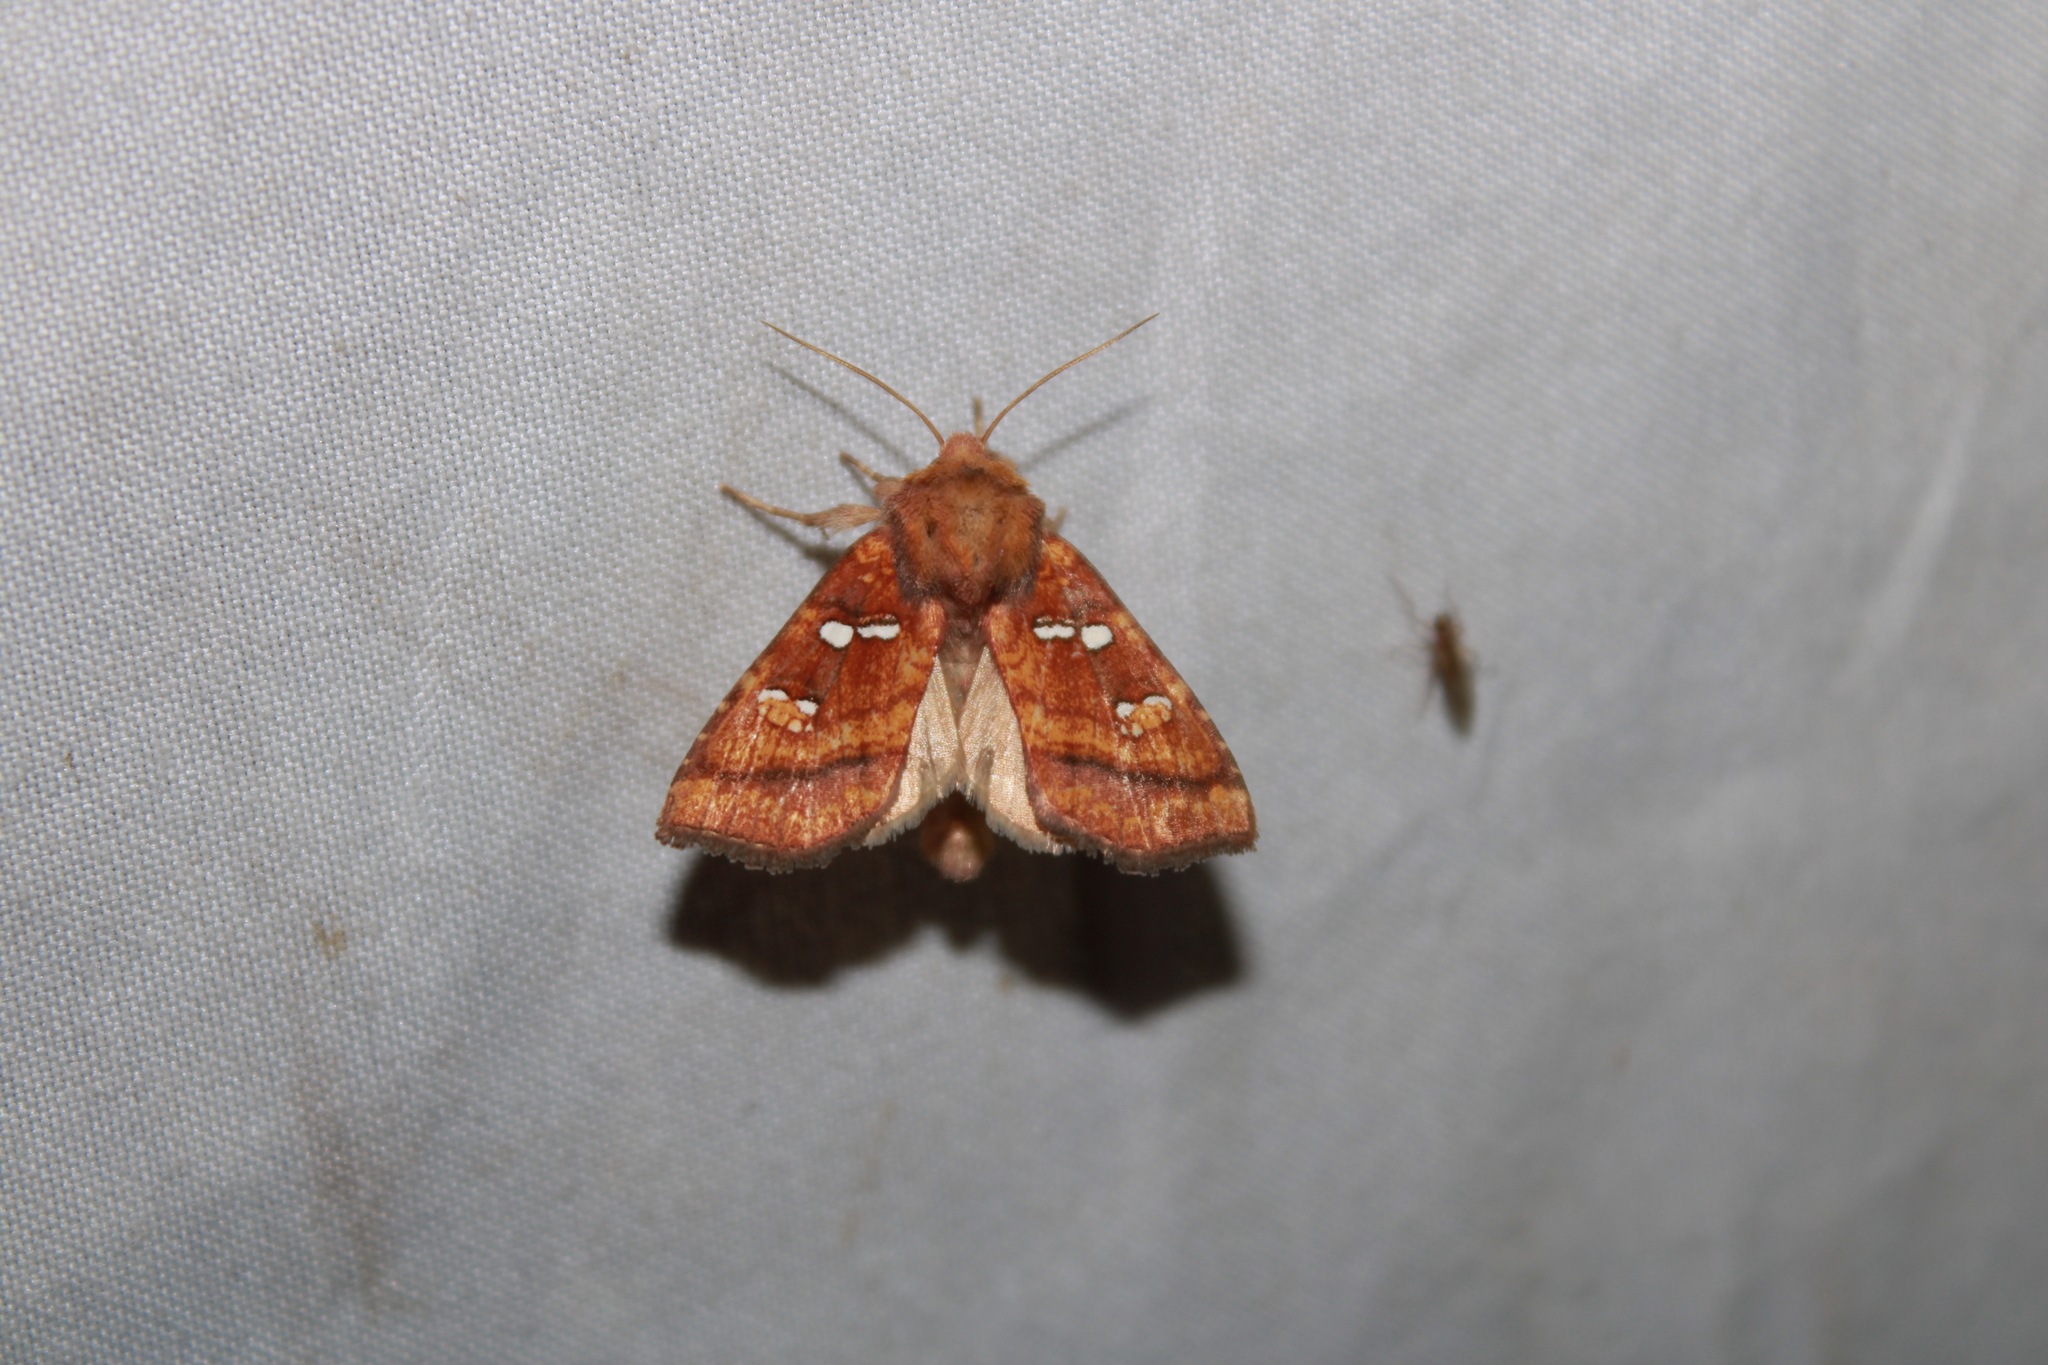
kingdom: Animalia
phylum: Arthropoda
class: Insecta
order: Lepidoptera
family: Noctuidae
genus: Papaipema
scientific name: Papaipema pterisii
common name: Bracken borer moth
